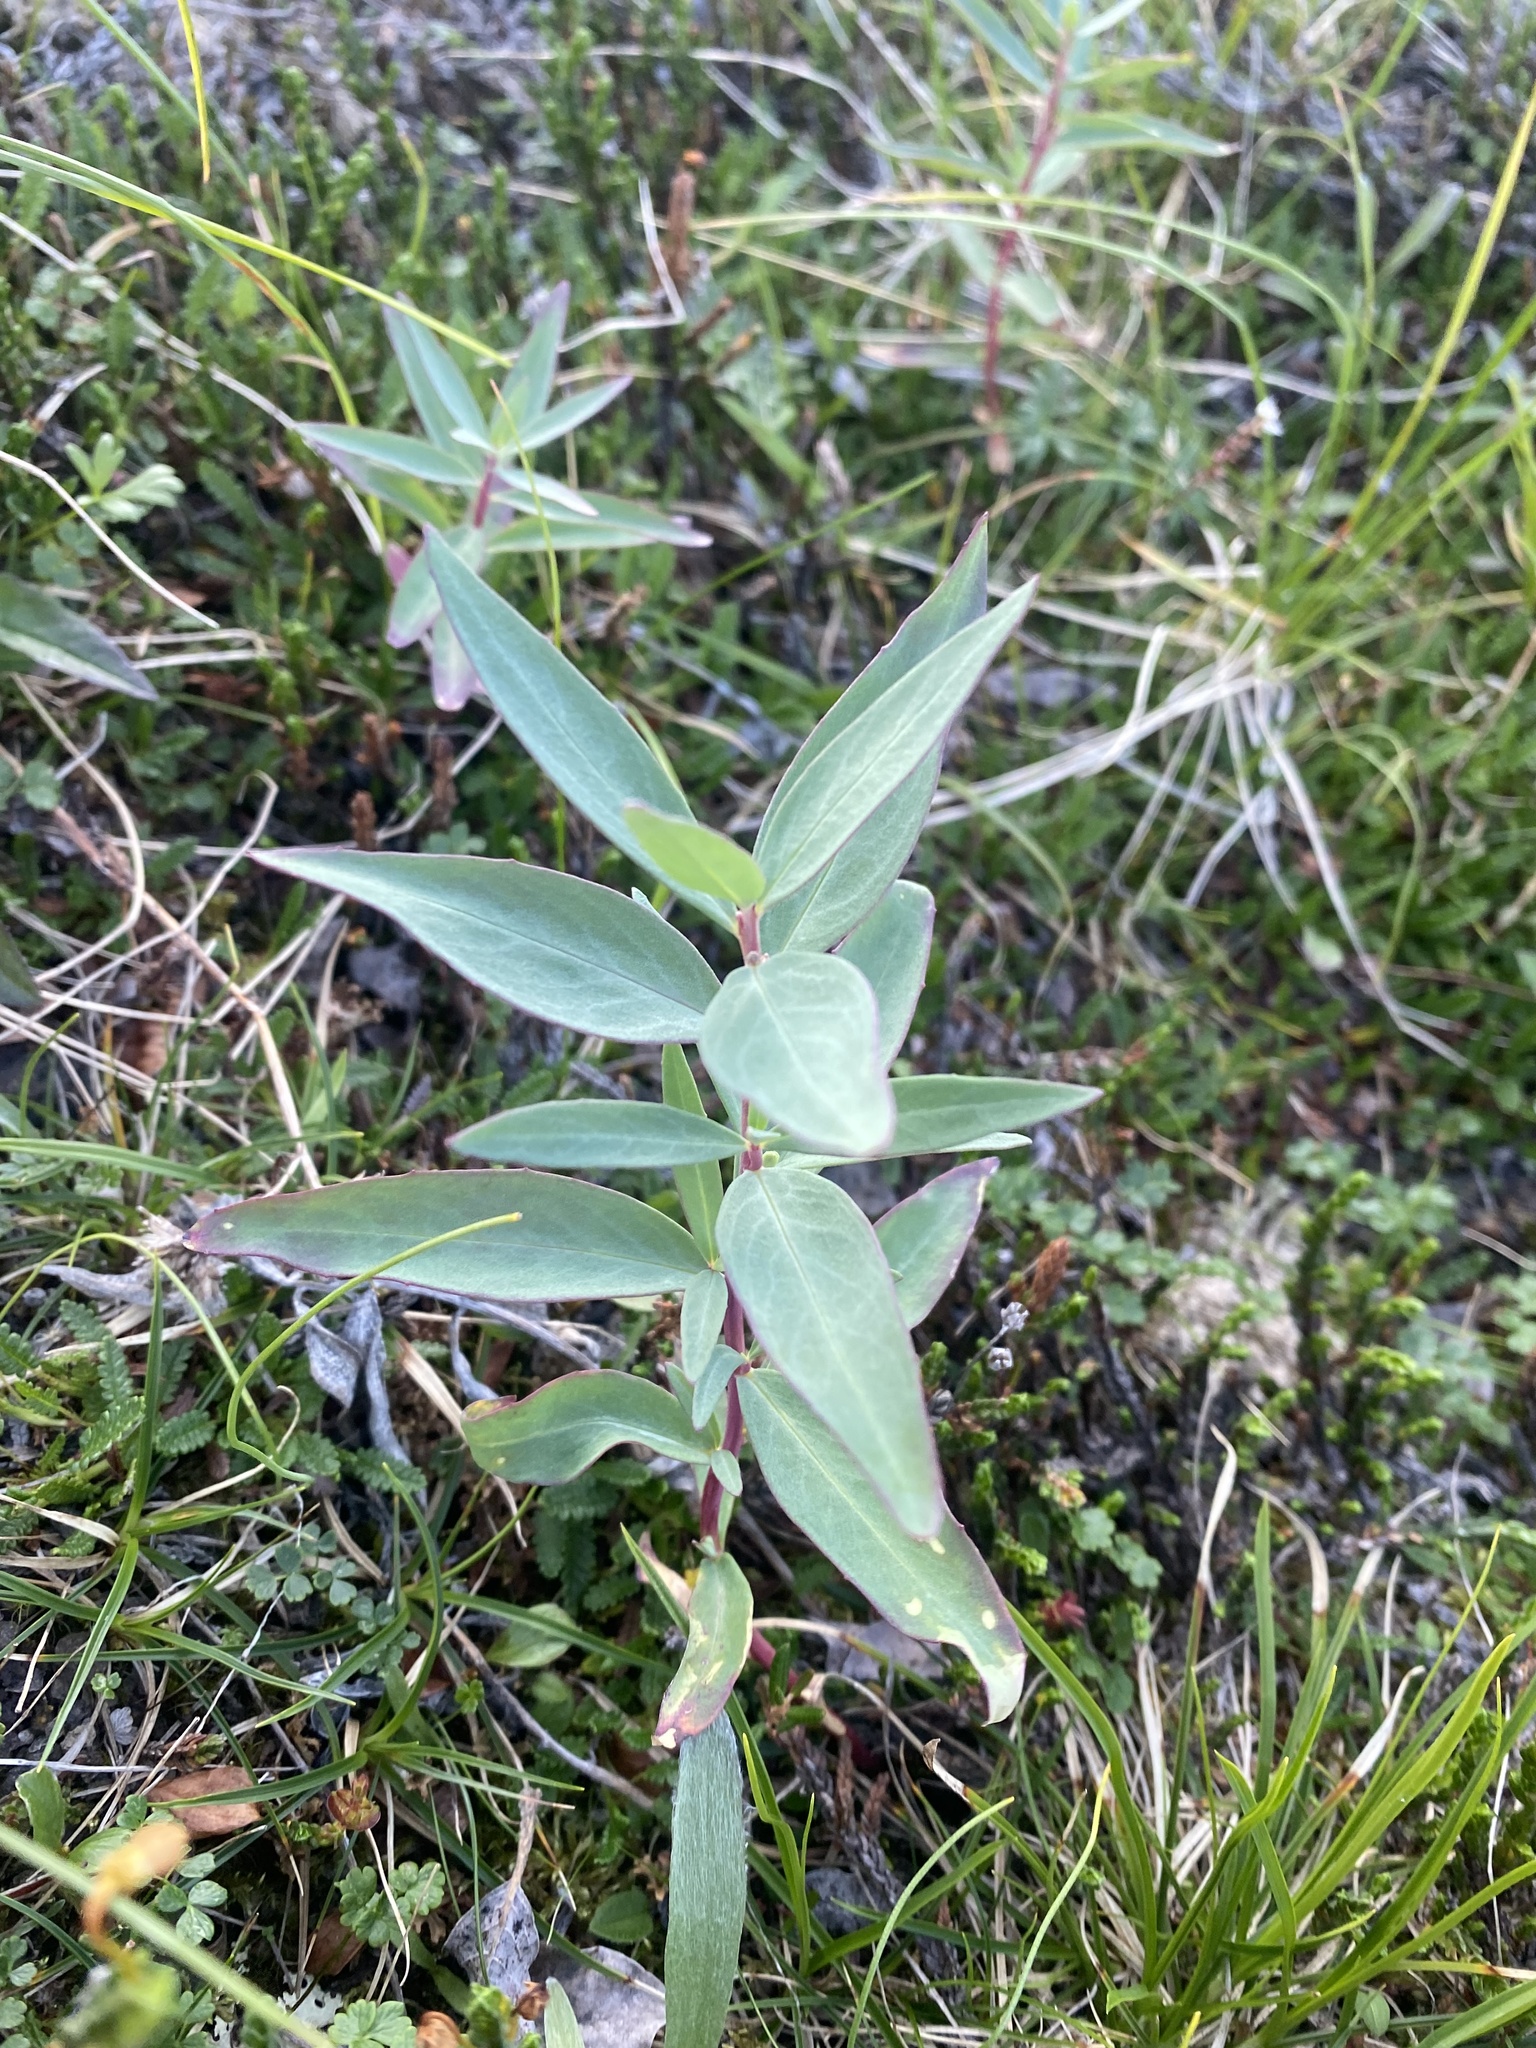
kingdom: Plantae
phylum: Tracheophyta
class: Magnoliopsida
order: Myrtales
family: Onagraceae
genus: Chamaenerion
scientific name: Chamaenerion latifolium
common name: Dwarf fireweed
